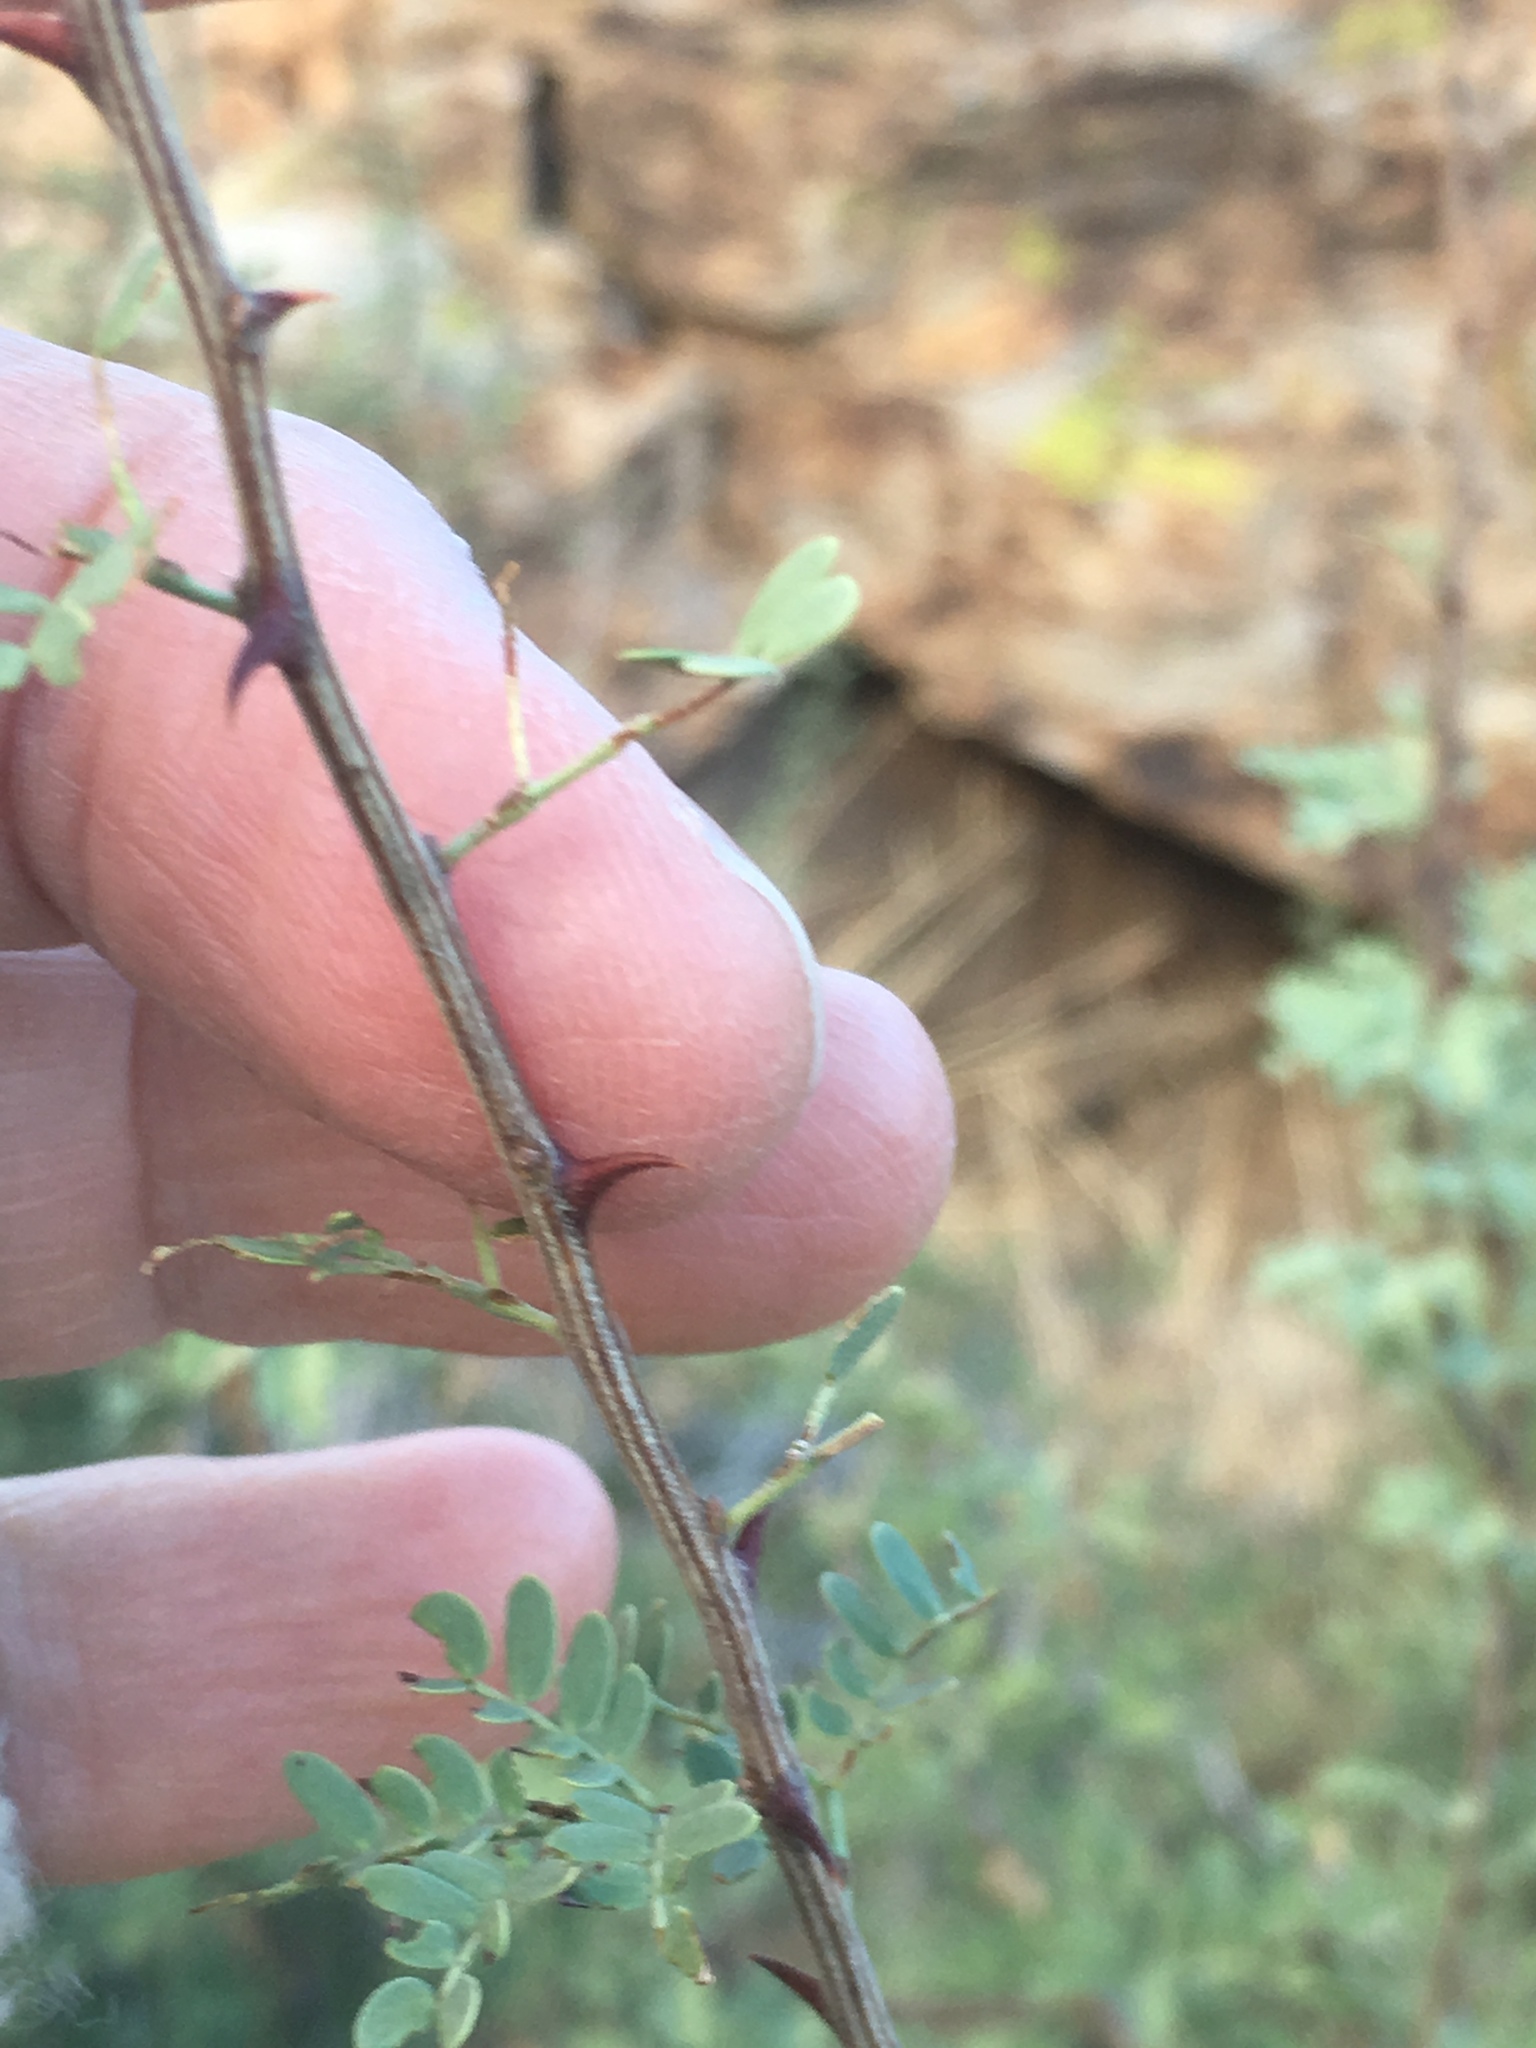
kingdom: Plantae
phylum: Tracheophyta
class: Magnoliopsida
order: Fabales
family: Fabaceae
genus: Senegalia
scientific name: Senegalia greggii
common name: Texas-mimosa
